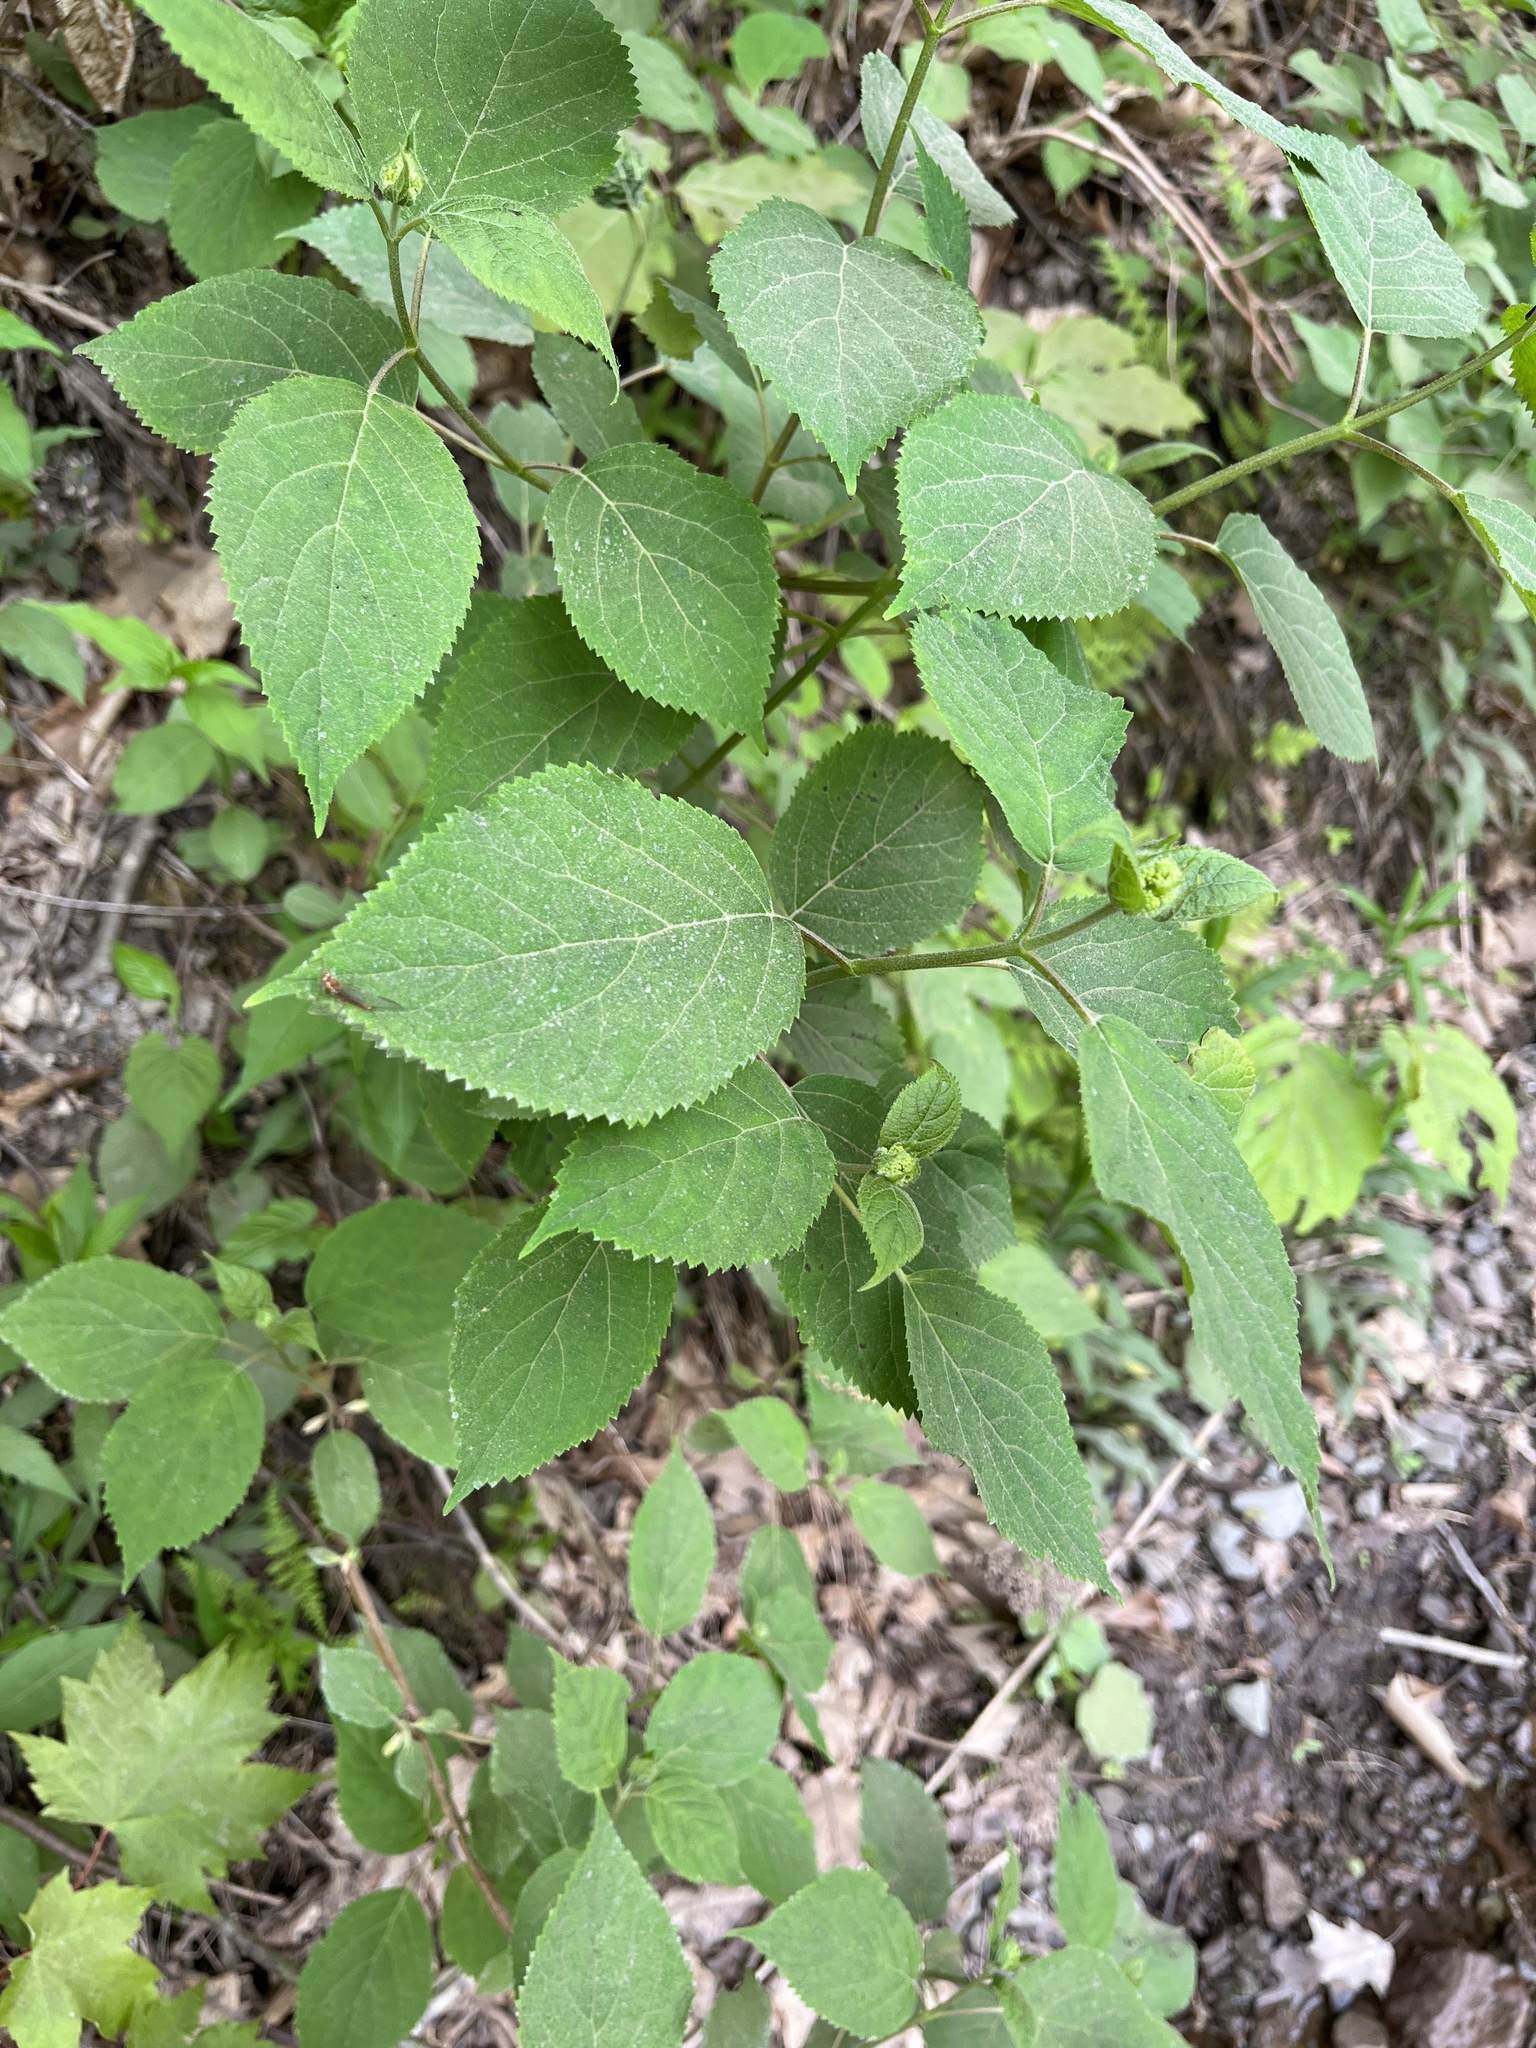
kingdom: Plantae
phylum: Tracheophyta
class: Magnoliopsida
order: Cornales
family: Hydrangeaceae
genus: Hydrangea
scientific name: Hydrangea arborescens
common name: Sevenbark
